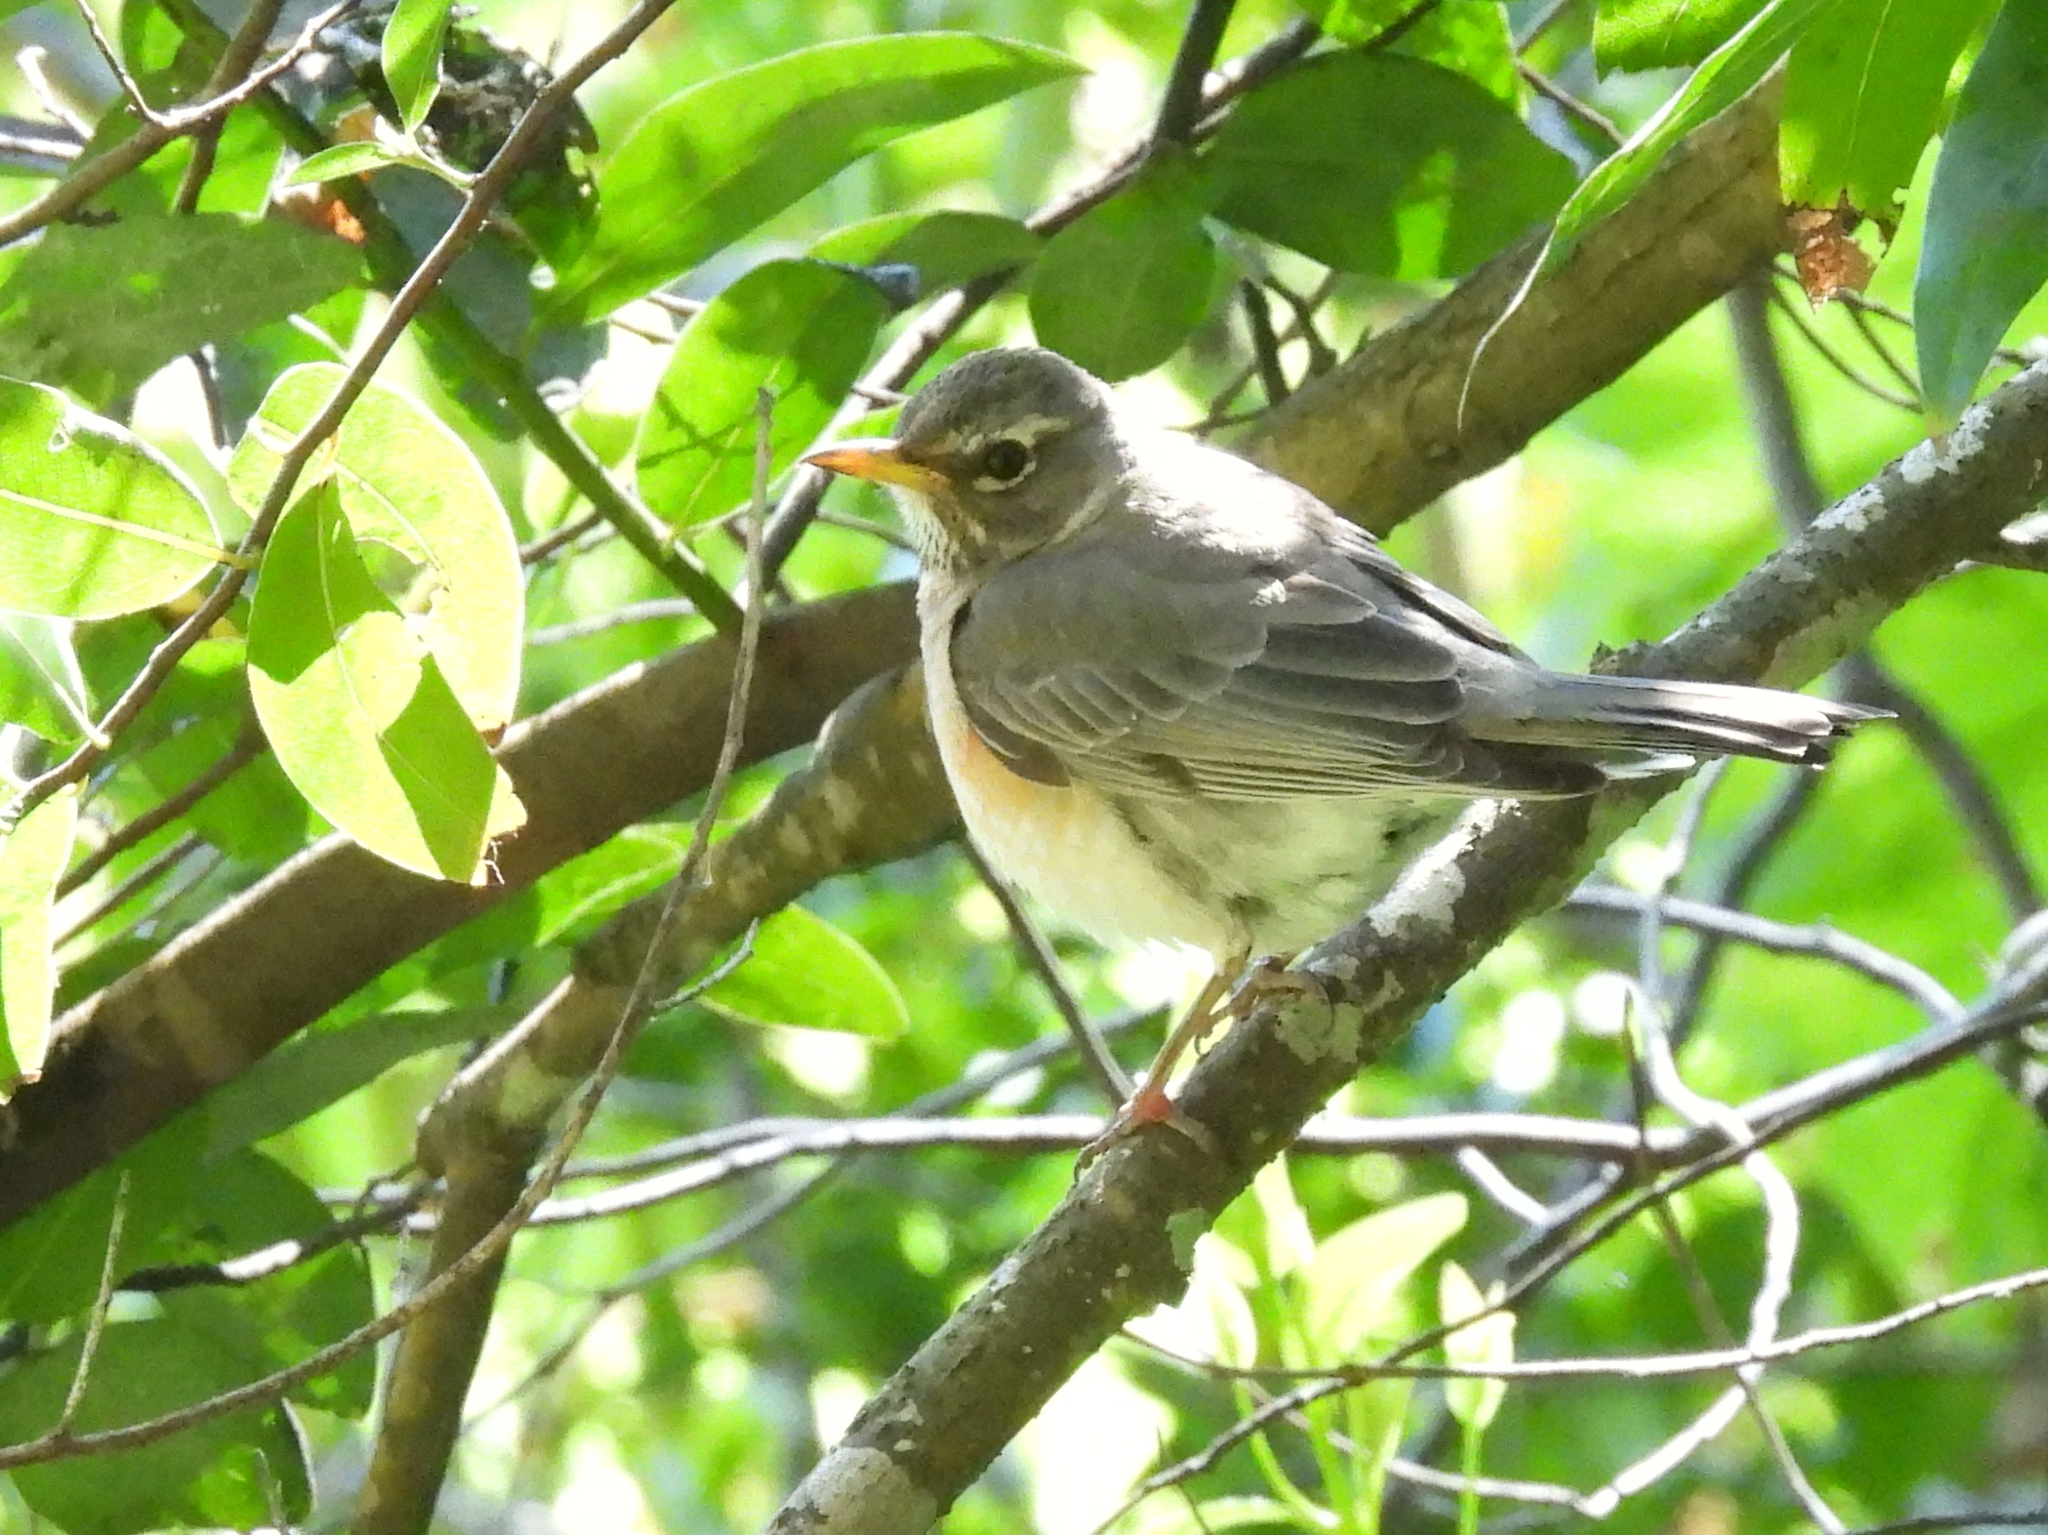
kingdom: Animalia
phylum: Chordata
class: Aves
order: Passeriformes
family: Turdidae
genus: Turdus
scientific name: Turdus migratorius
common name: American robin
